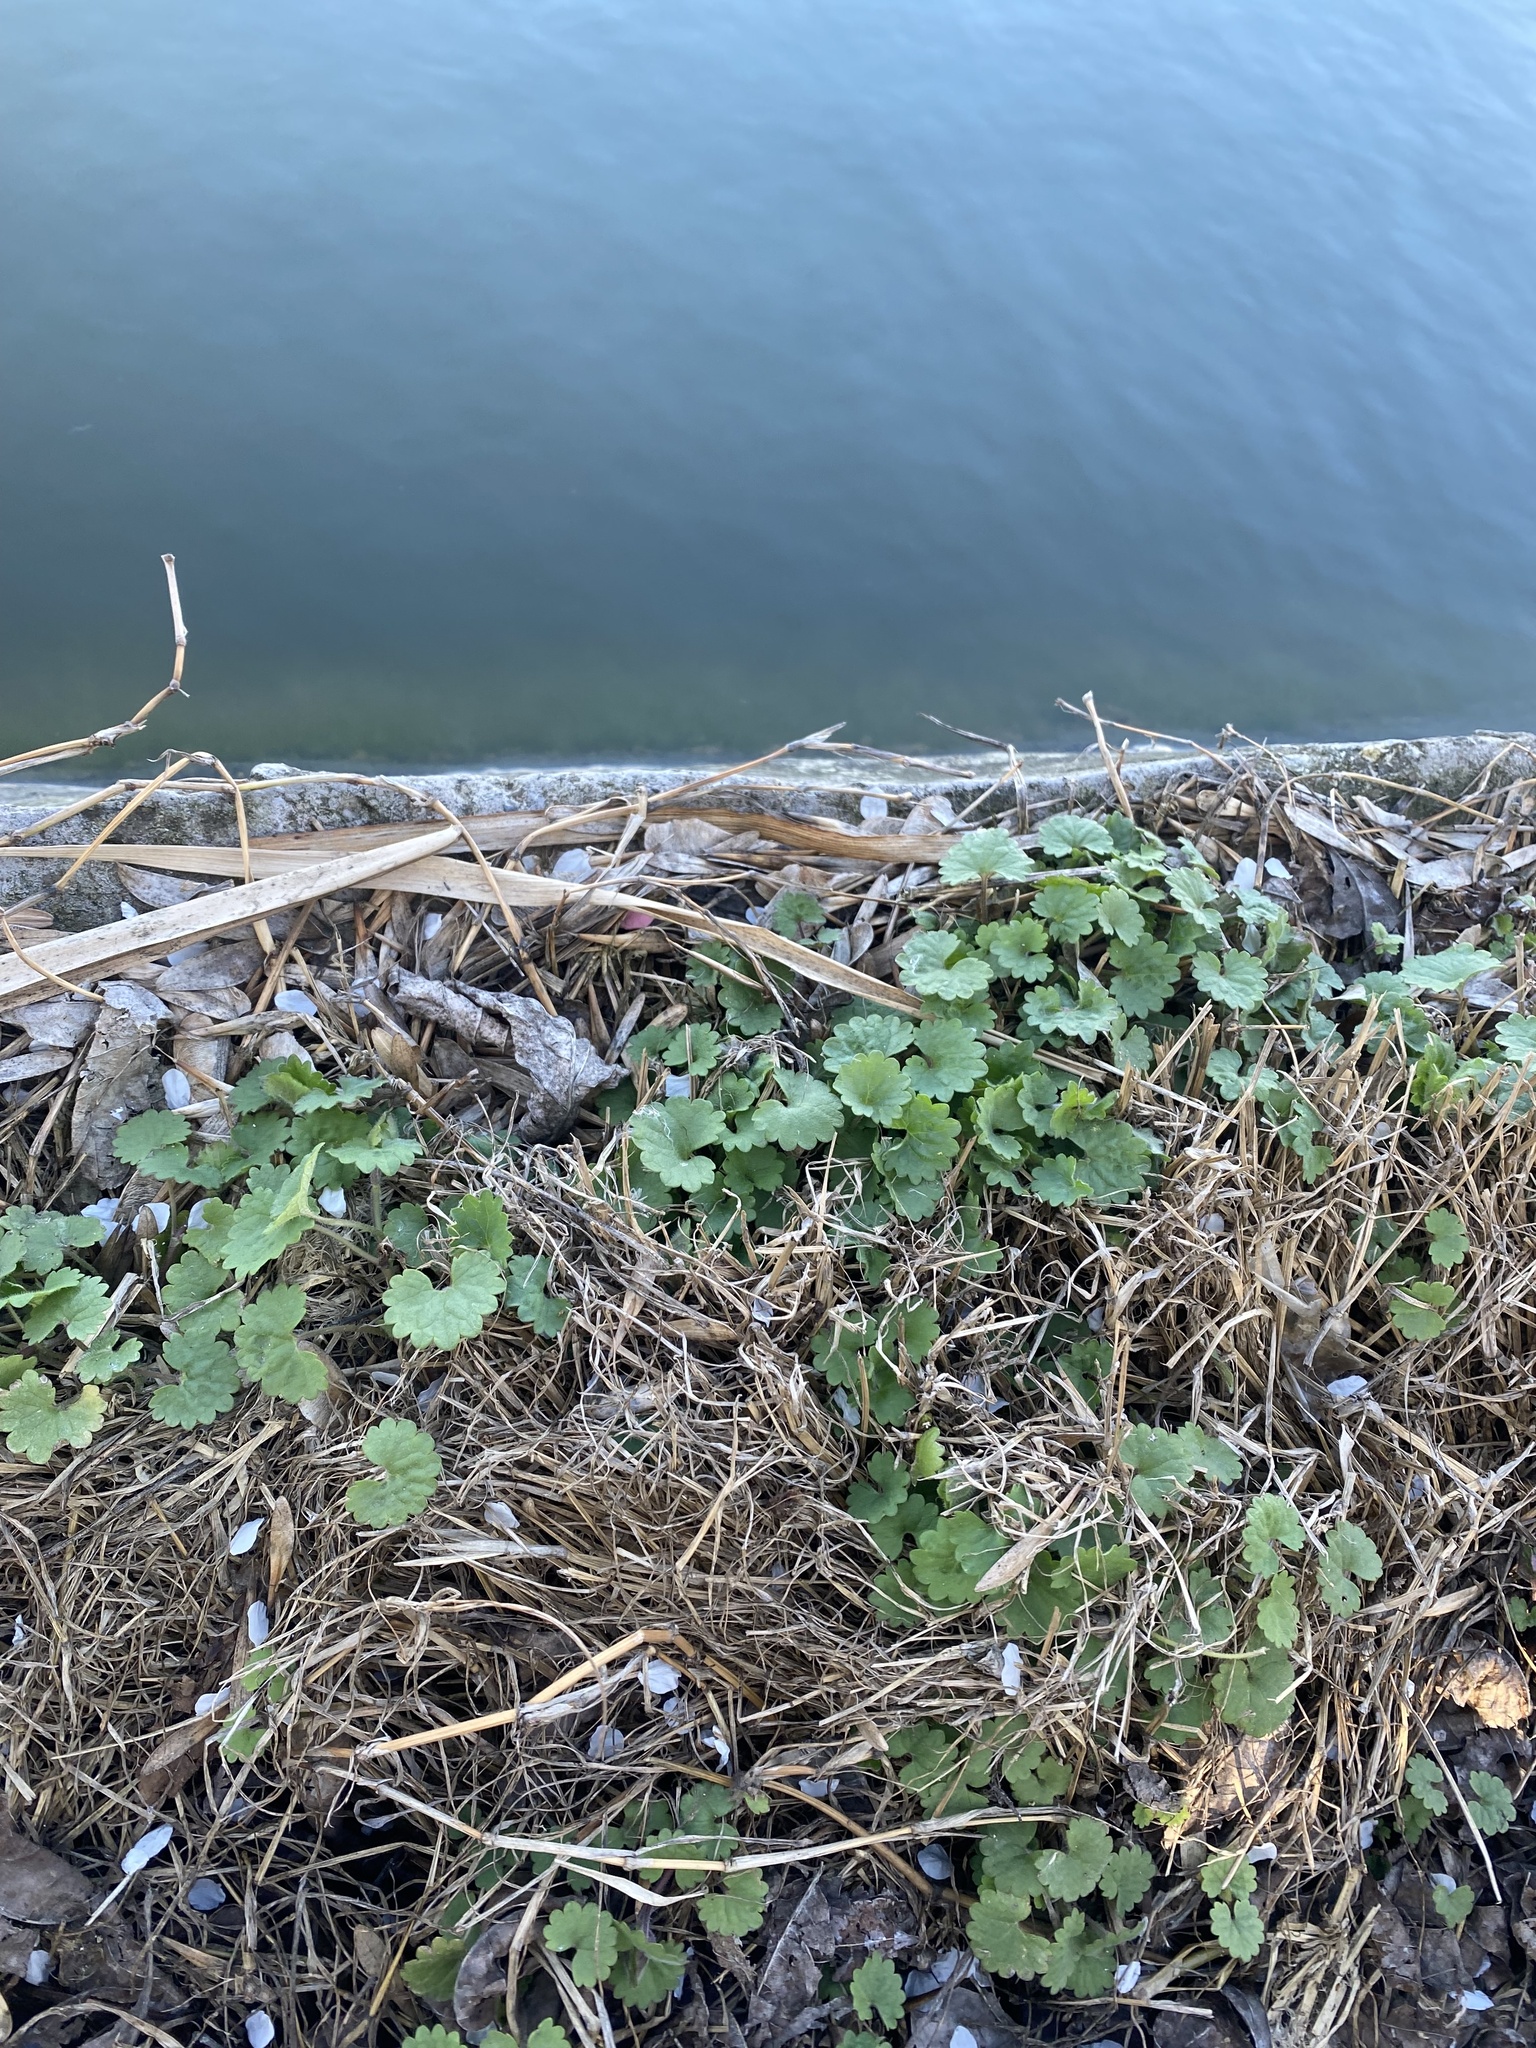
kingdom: Plantae
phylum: Tracheophyta
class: Magnoliopsida
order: Lamiales
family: Lamiaceae
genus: Glechoma
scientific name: Glechoma hederacea
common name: Ground ivy
